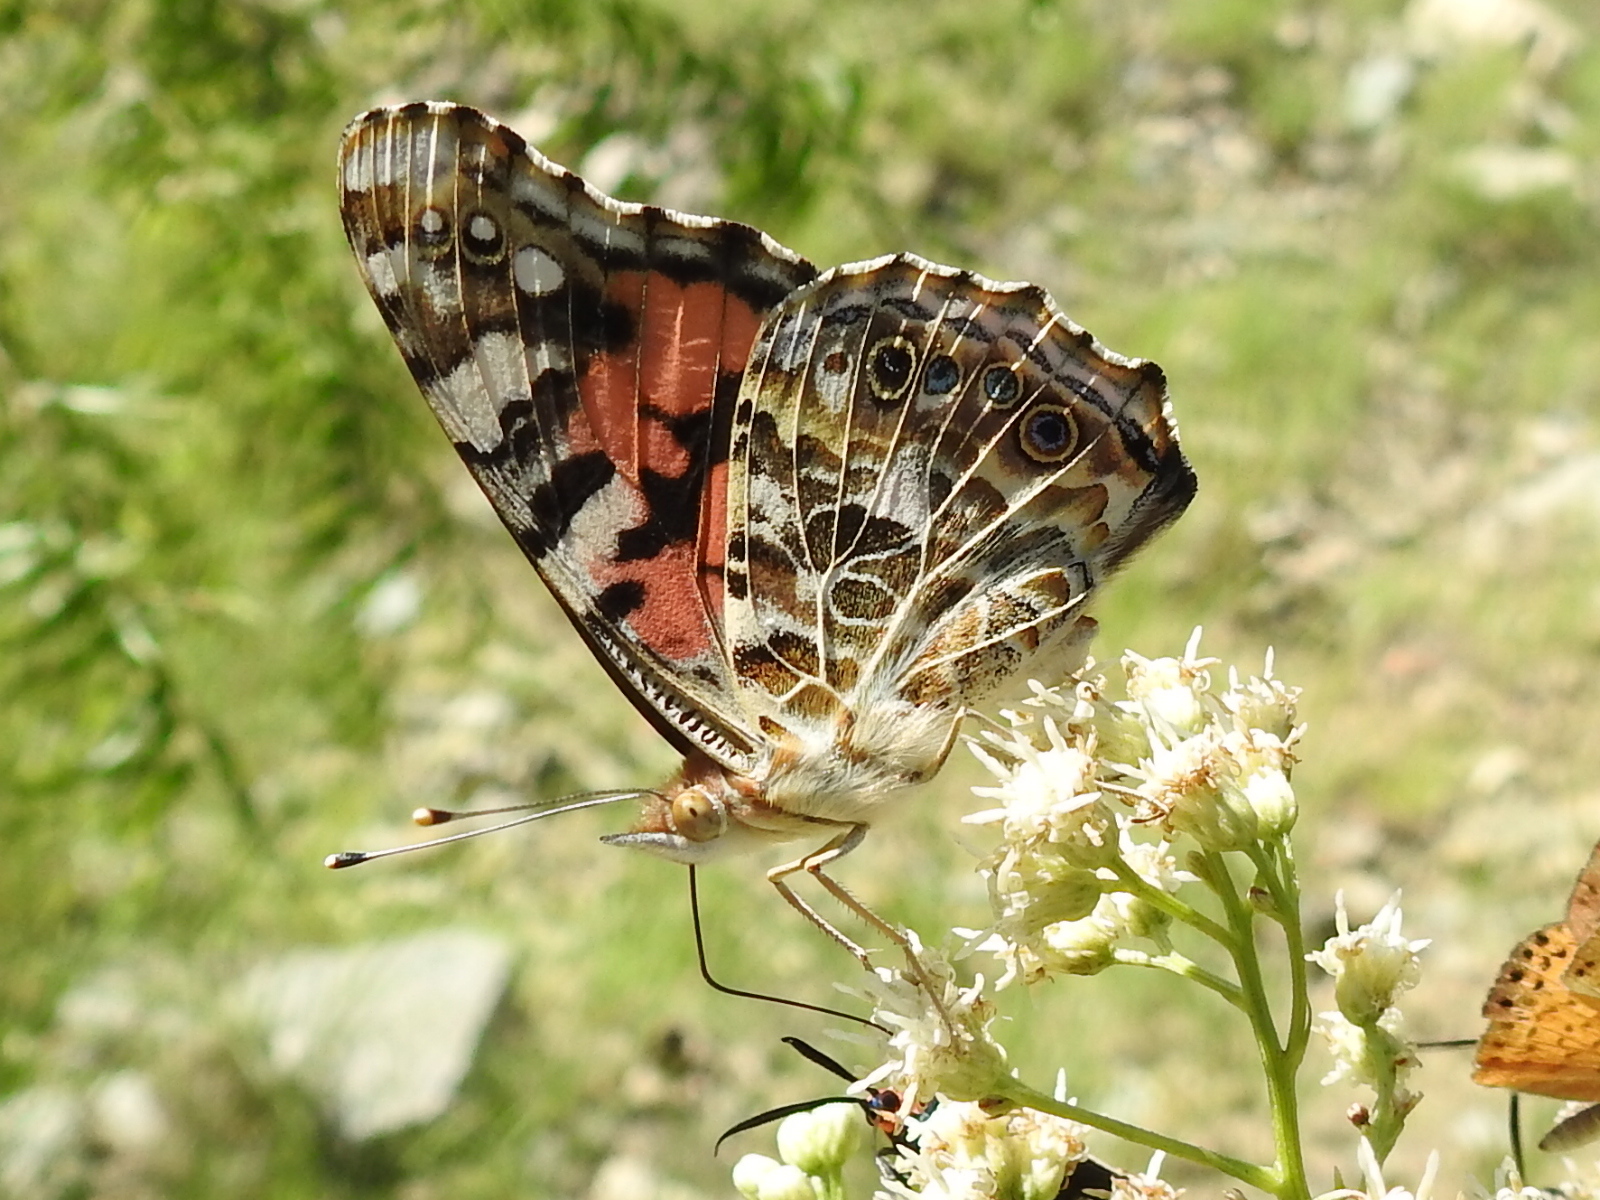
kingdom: Animalia
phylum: Arthropoda
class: Insecta
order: Lepidoptera
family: Nymphalidae
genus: Vanessa
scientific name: Vanessa cardui
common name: Painted lady
